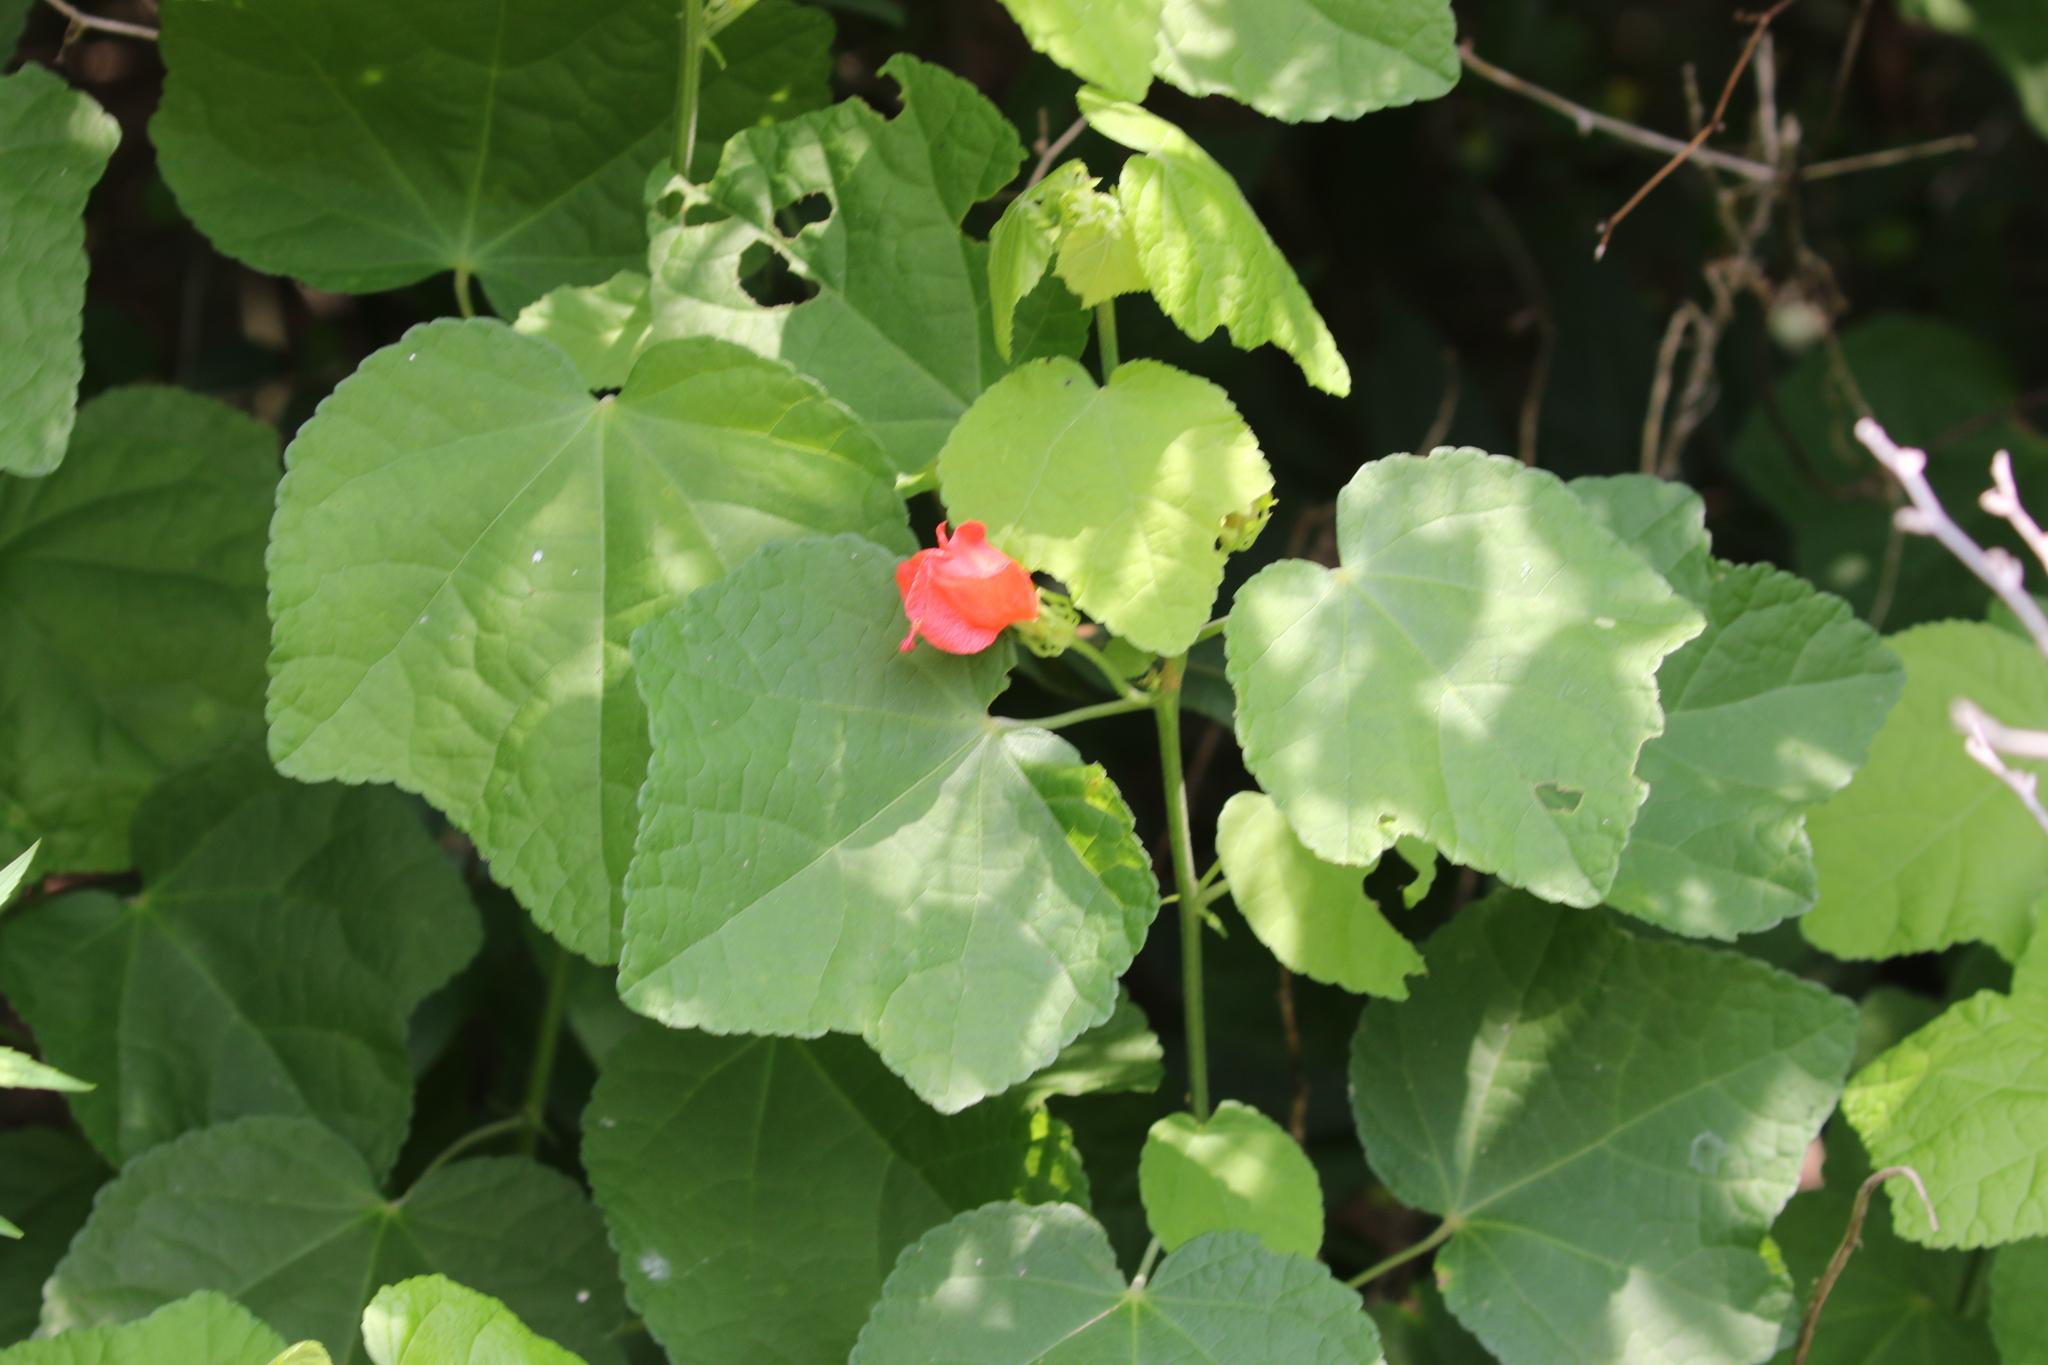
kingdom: Plantae
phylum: Tracheophyta
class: Magnoliopsida
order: Malvales
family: Malvaceae
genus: Malvaviscus
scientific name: Malvaviscus arboreus
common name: Wax mallow
